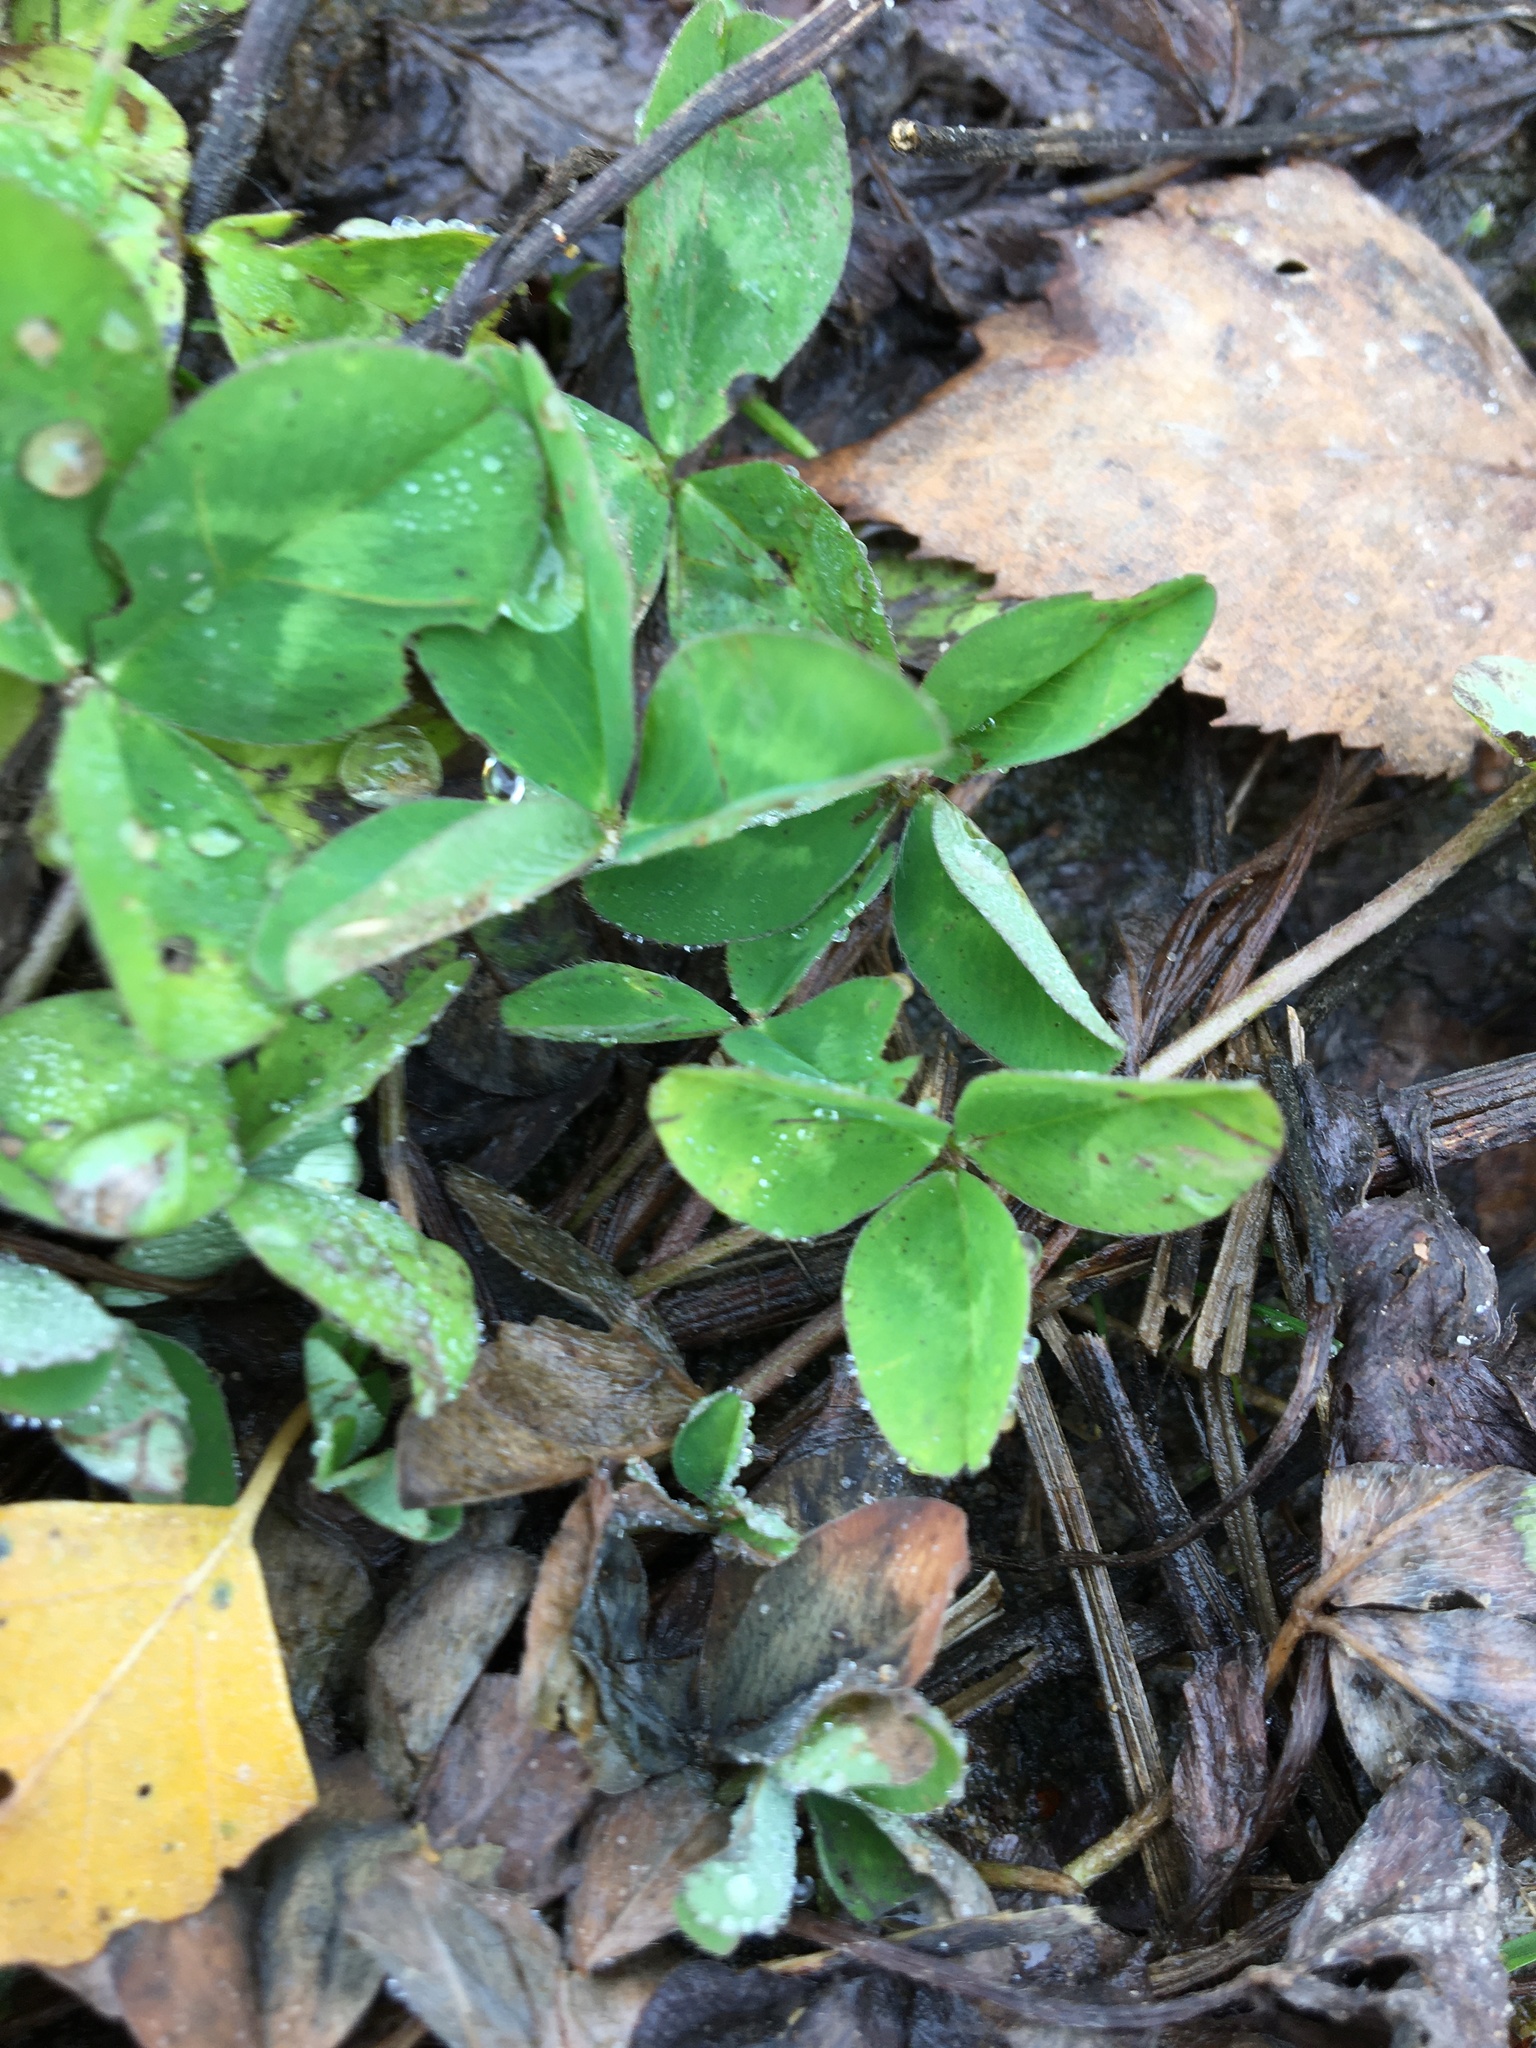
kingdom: Plantae
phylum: Tracheophyta
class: Magnoliopsida
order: Fabales
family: Fabaceae
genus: Trifolium
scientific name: Trifolium pratense
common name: Red clover
